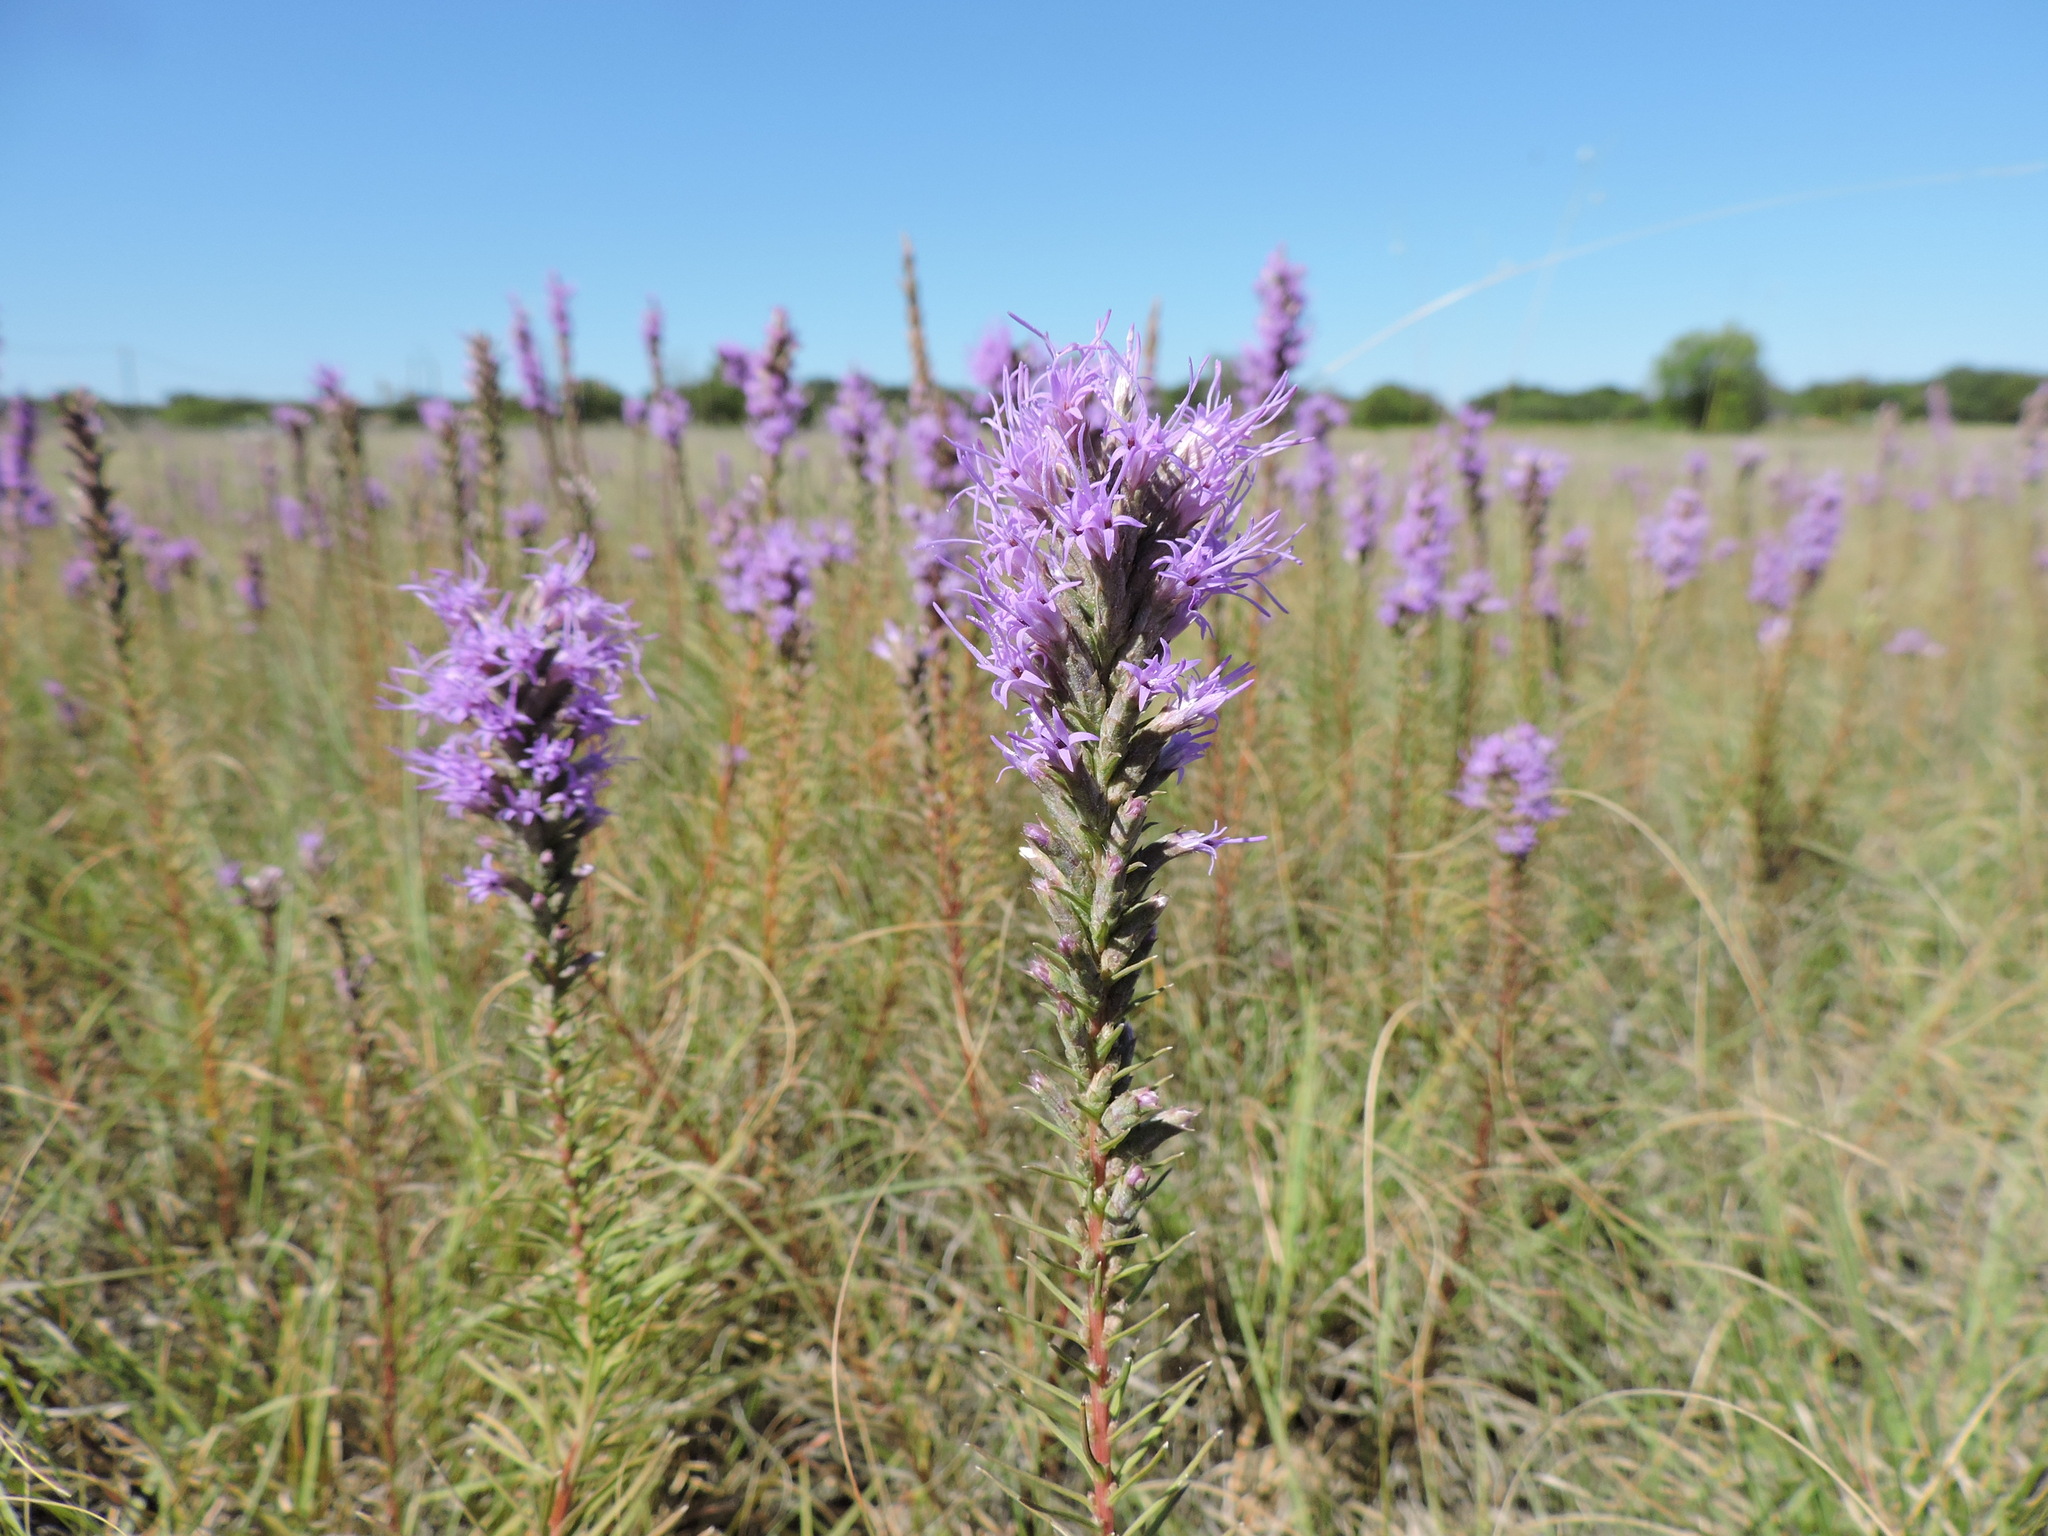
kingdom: Plantae
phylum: Tracheophyta
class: Magnoliopsida
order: Asterales
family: Asteraceae
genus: Liatris
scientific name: Liatris punctata
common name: Dotted gayfeather
